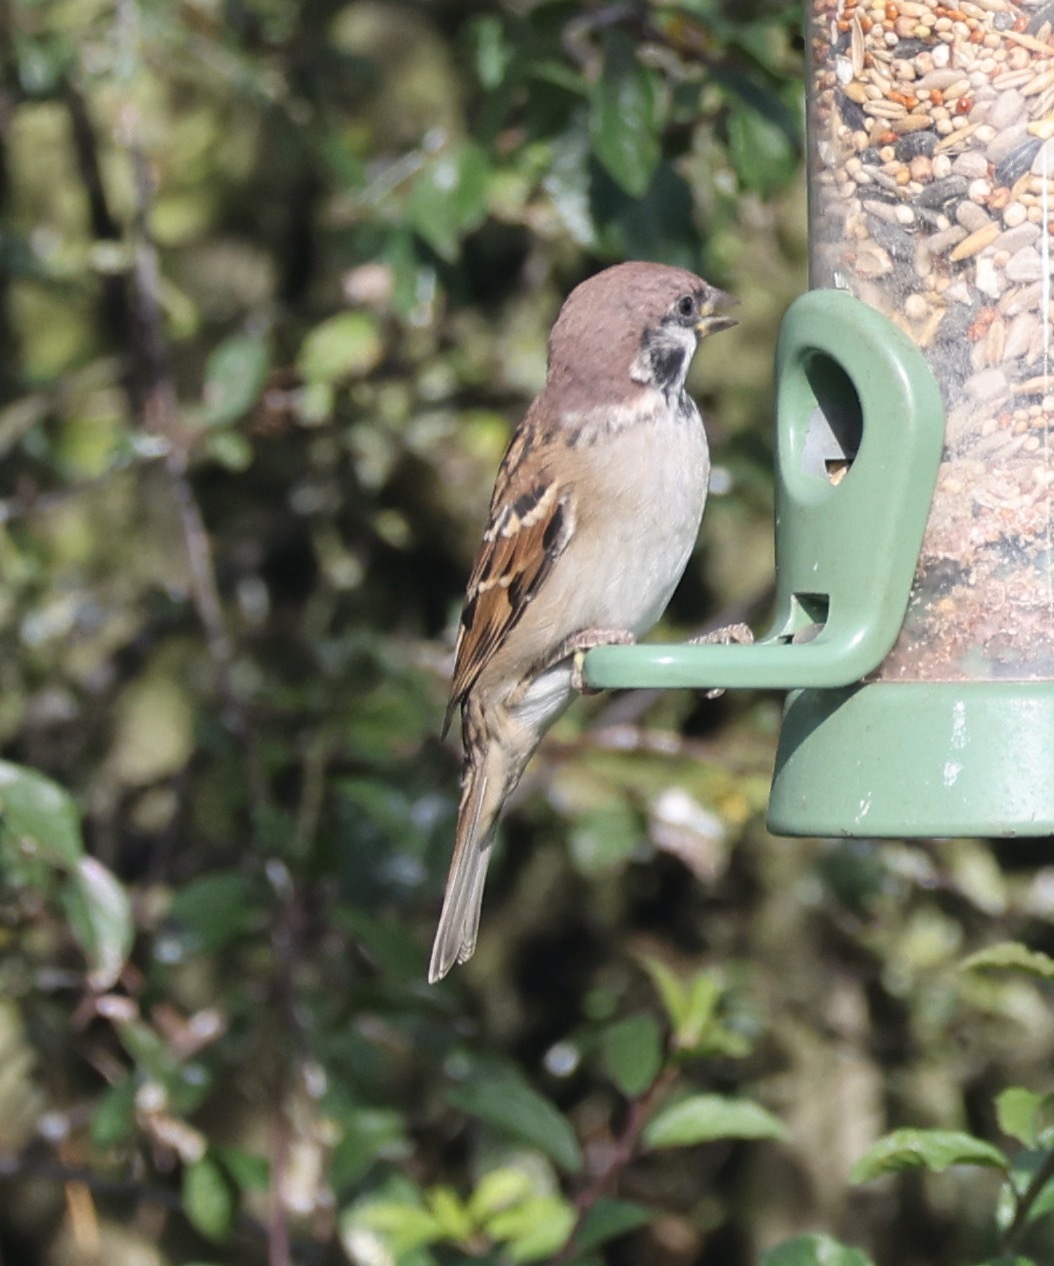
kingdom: Animalia
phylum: Chordata
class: Aves
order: Passeriformes
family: Passeridae
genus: Passer
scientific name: Passer montanus
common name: Eurasian tree sparrow
